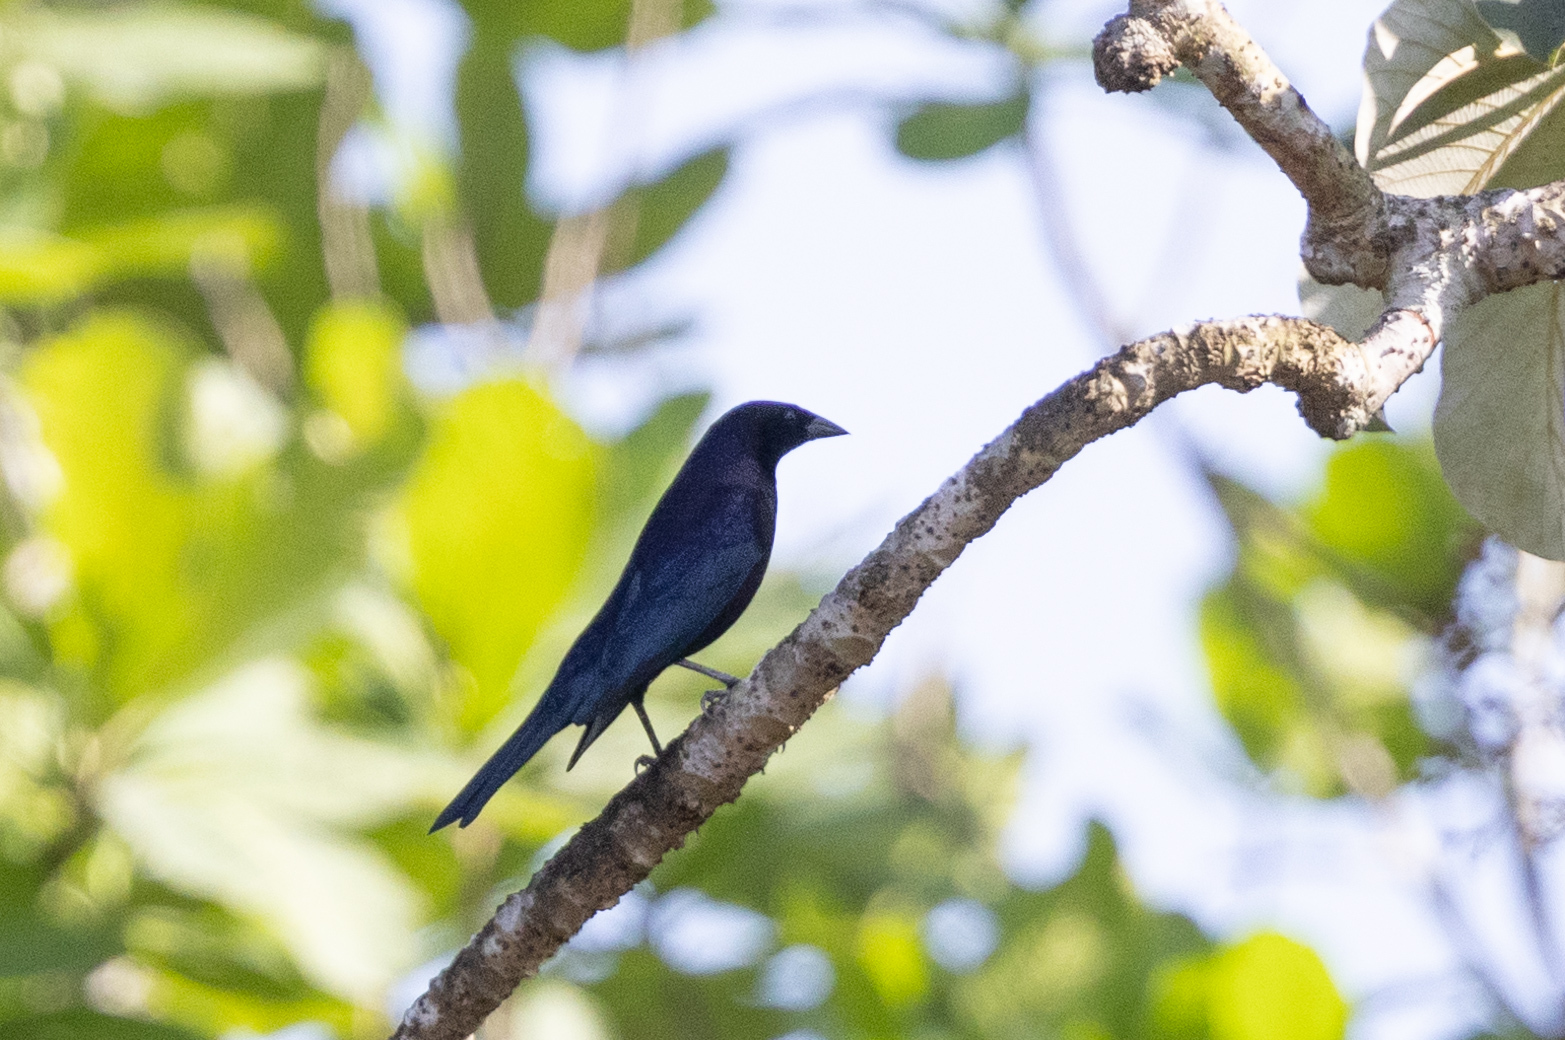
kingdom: Animalia
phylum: Chordata
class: Aves
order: Passeriformes
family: Icteridae
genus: Molothrus
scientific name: Molothrus bonariensis
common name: Shiny cowbird
